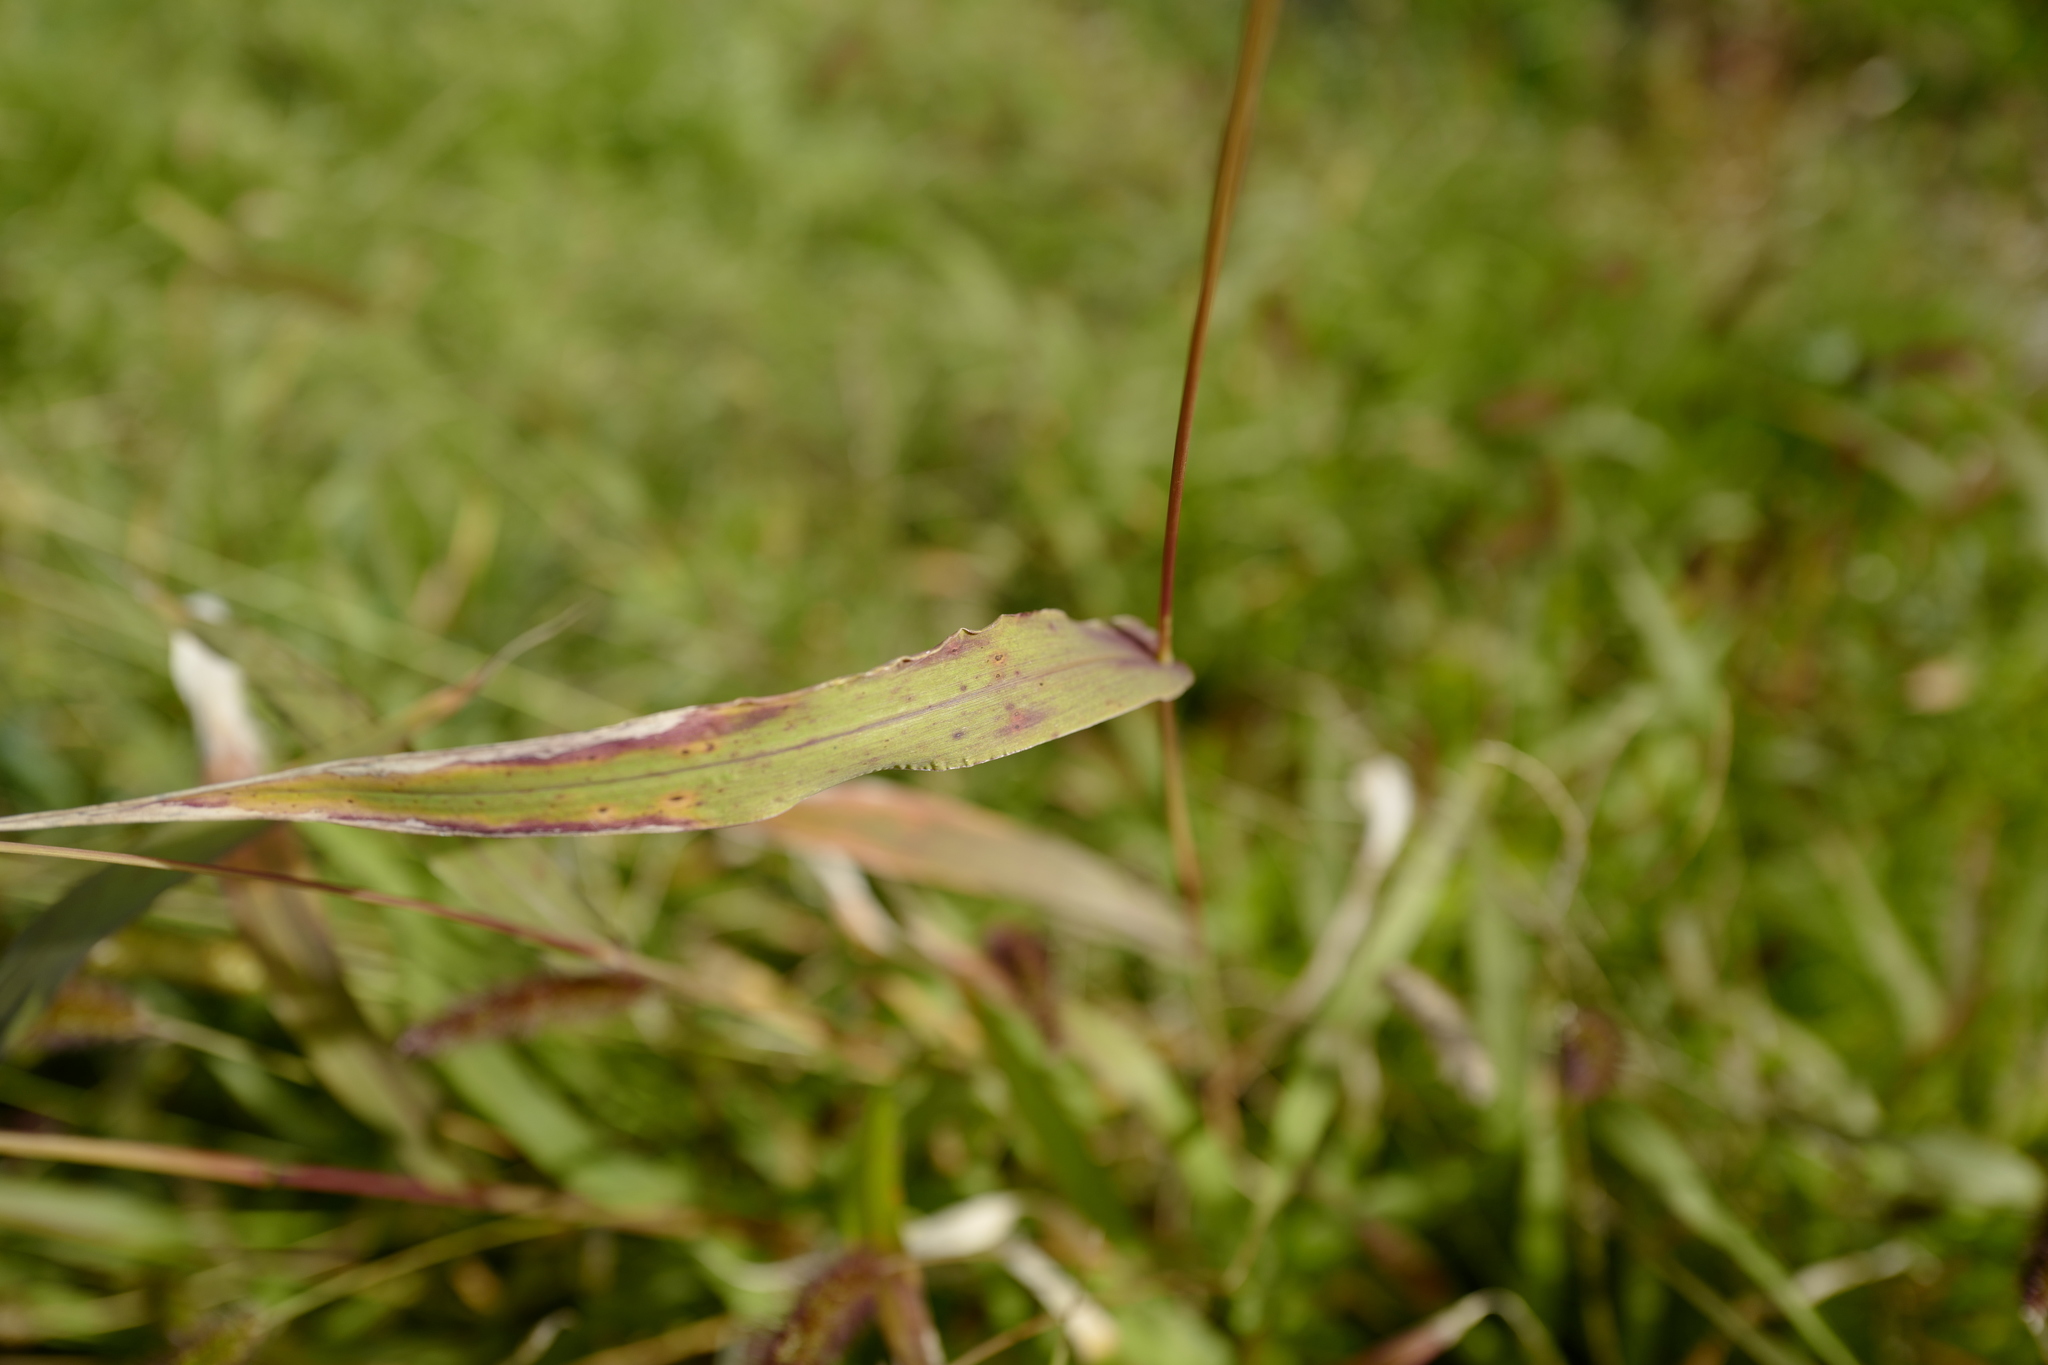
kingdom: Plantae
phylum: Tracheophyta
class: Liliopsida
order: Poales
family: Poaceae
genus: Setaria
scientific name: Setaria viridis
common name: Green bristlegrass
